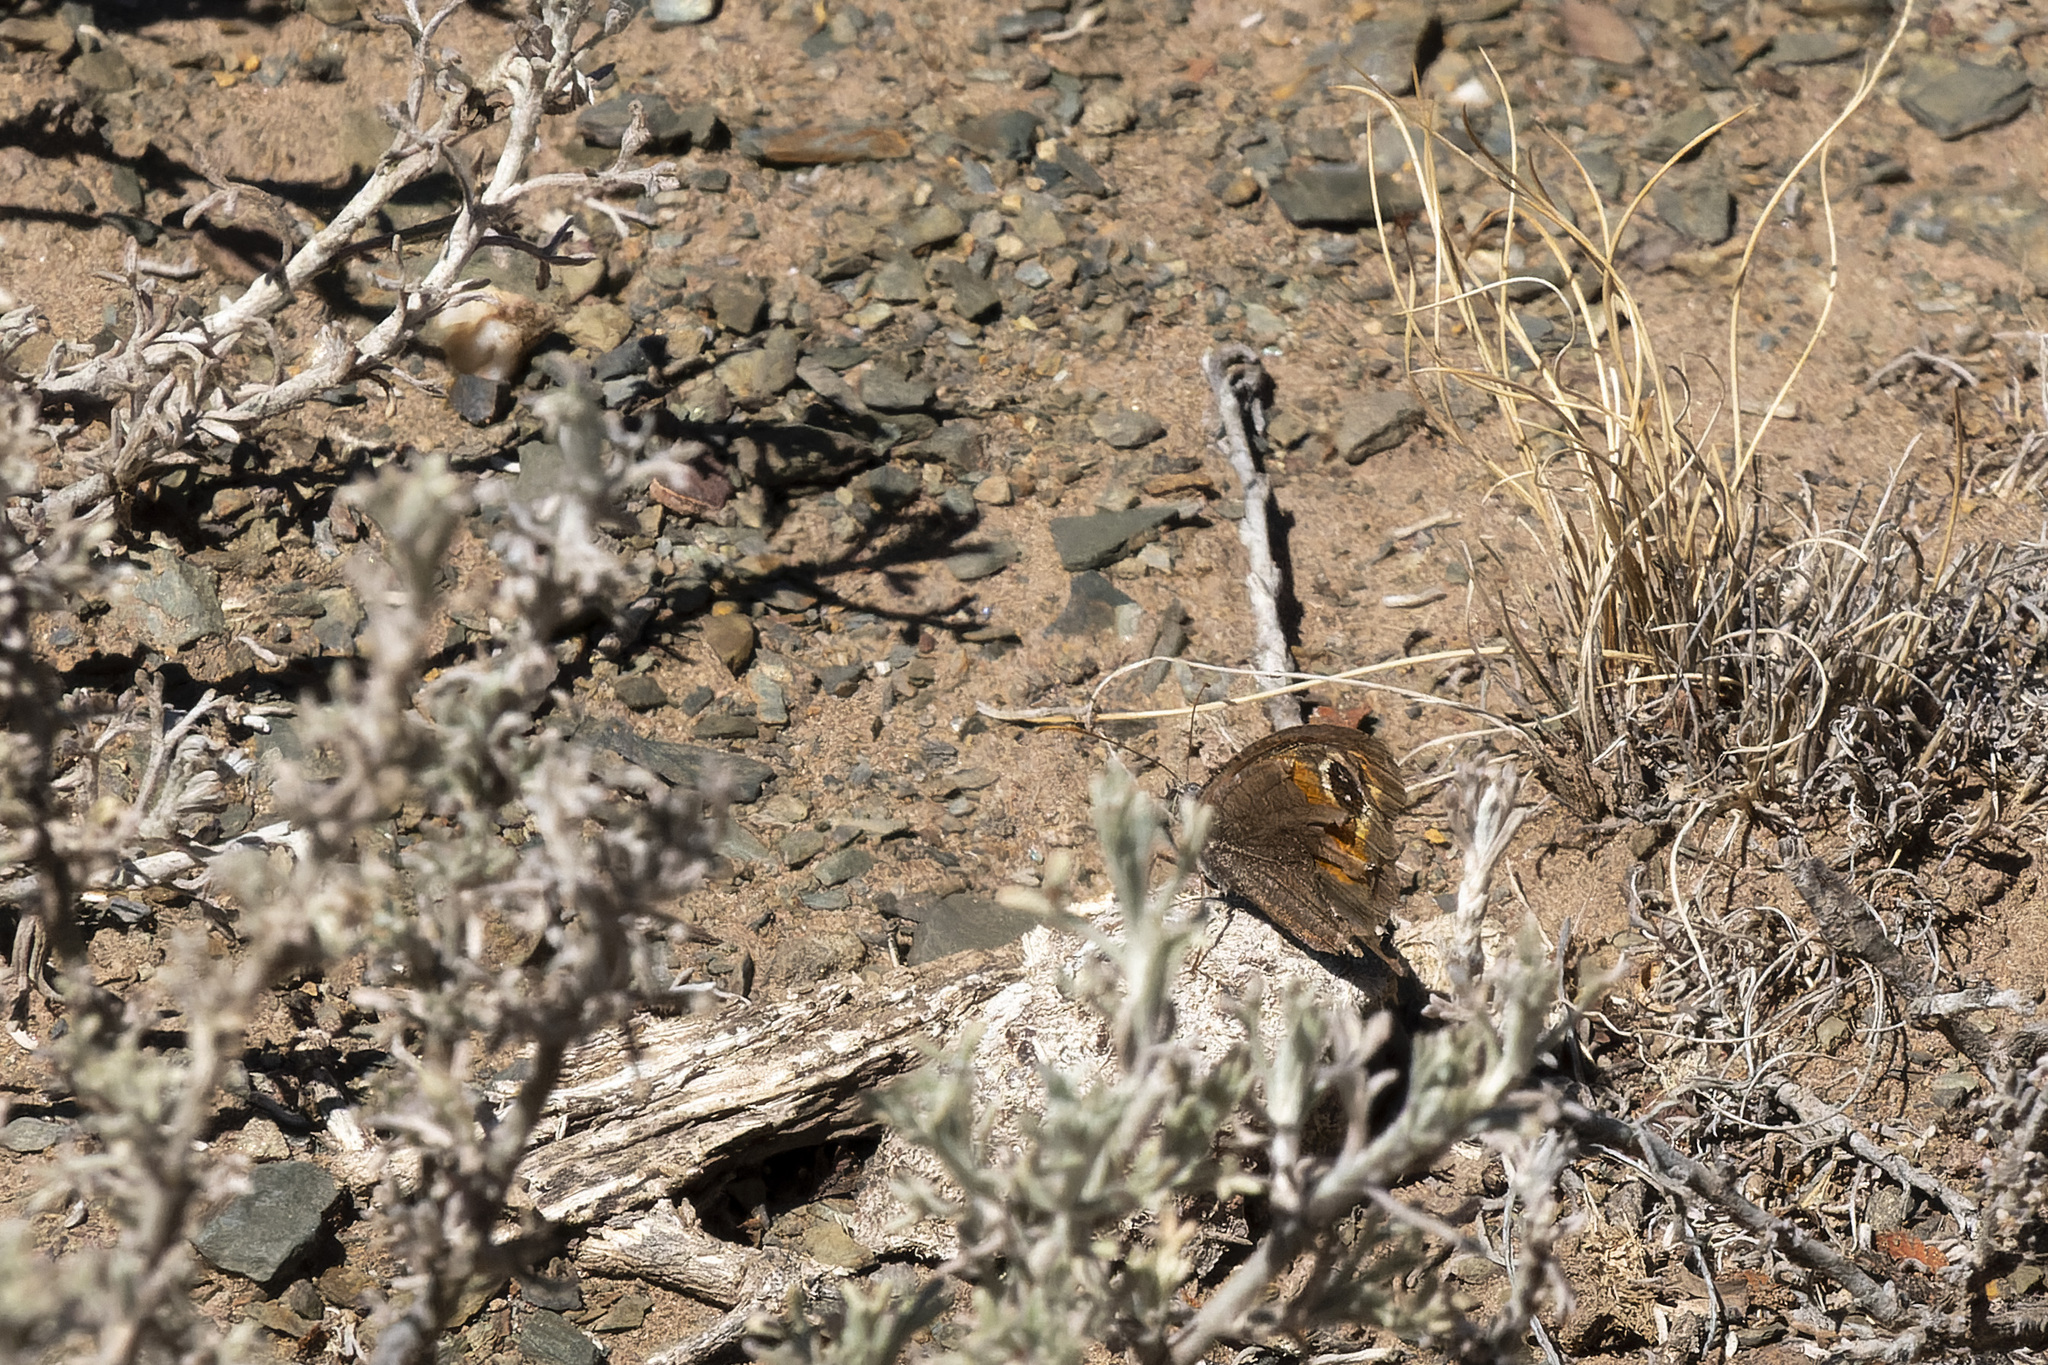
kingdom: Animalia
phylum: Arthropoda
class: Insecta
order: Lepidoptera
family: Nymphalidae
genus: Haywardella
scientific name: Haywardella edmondsii
